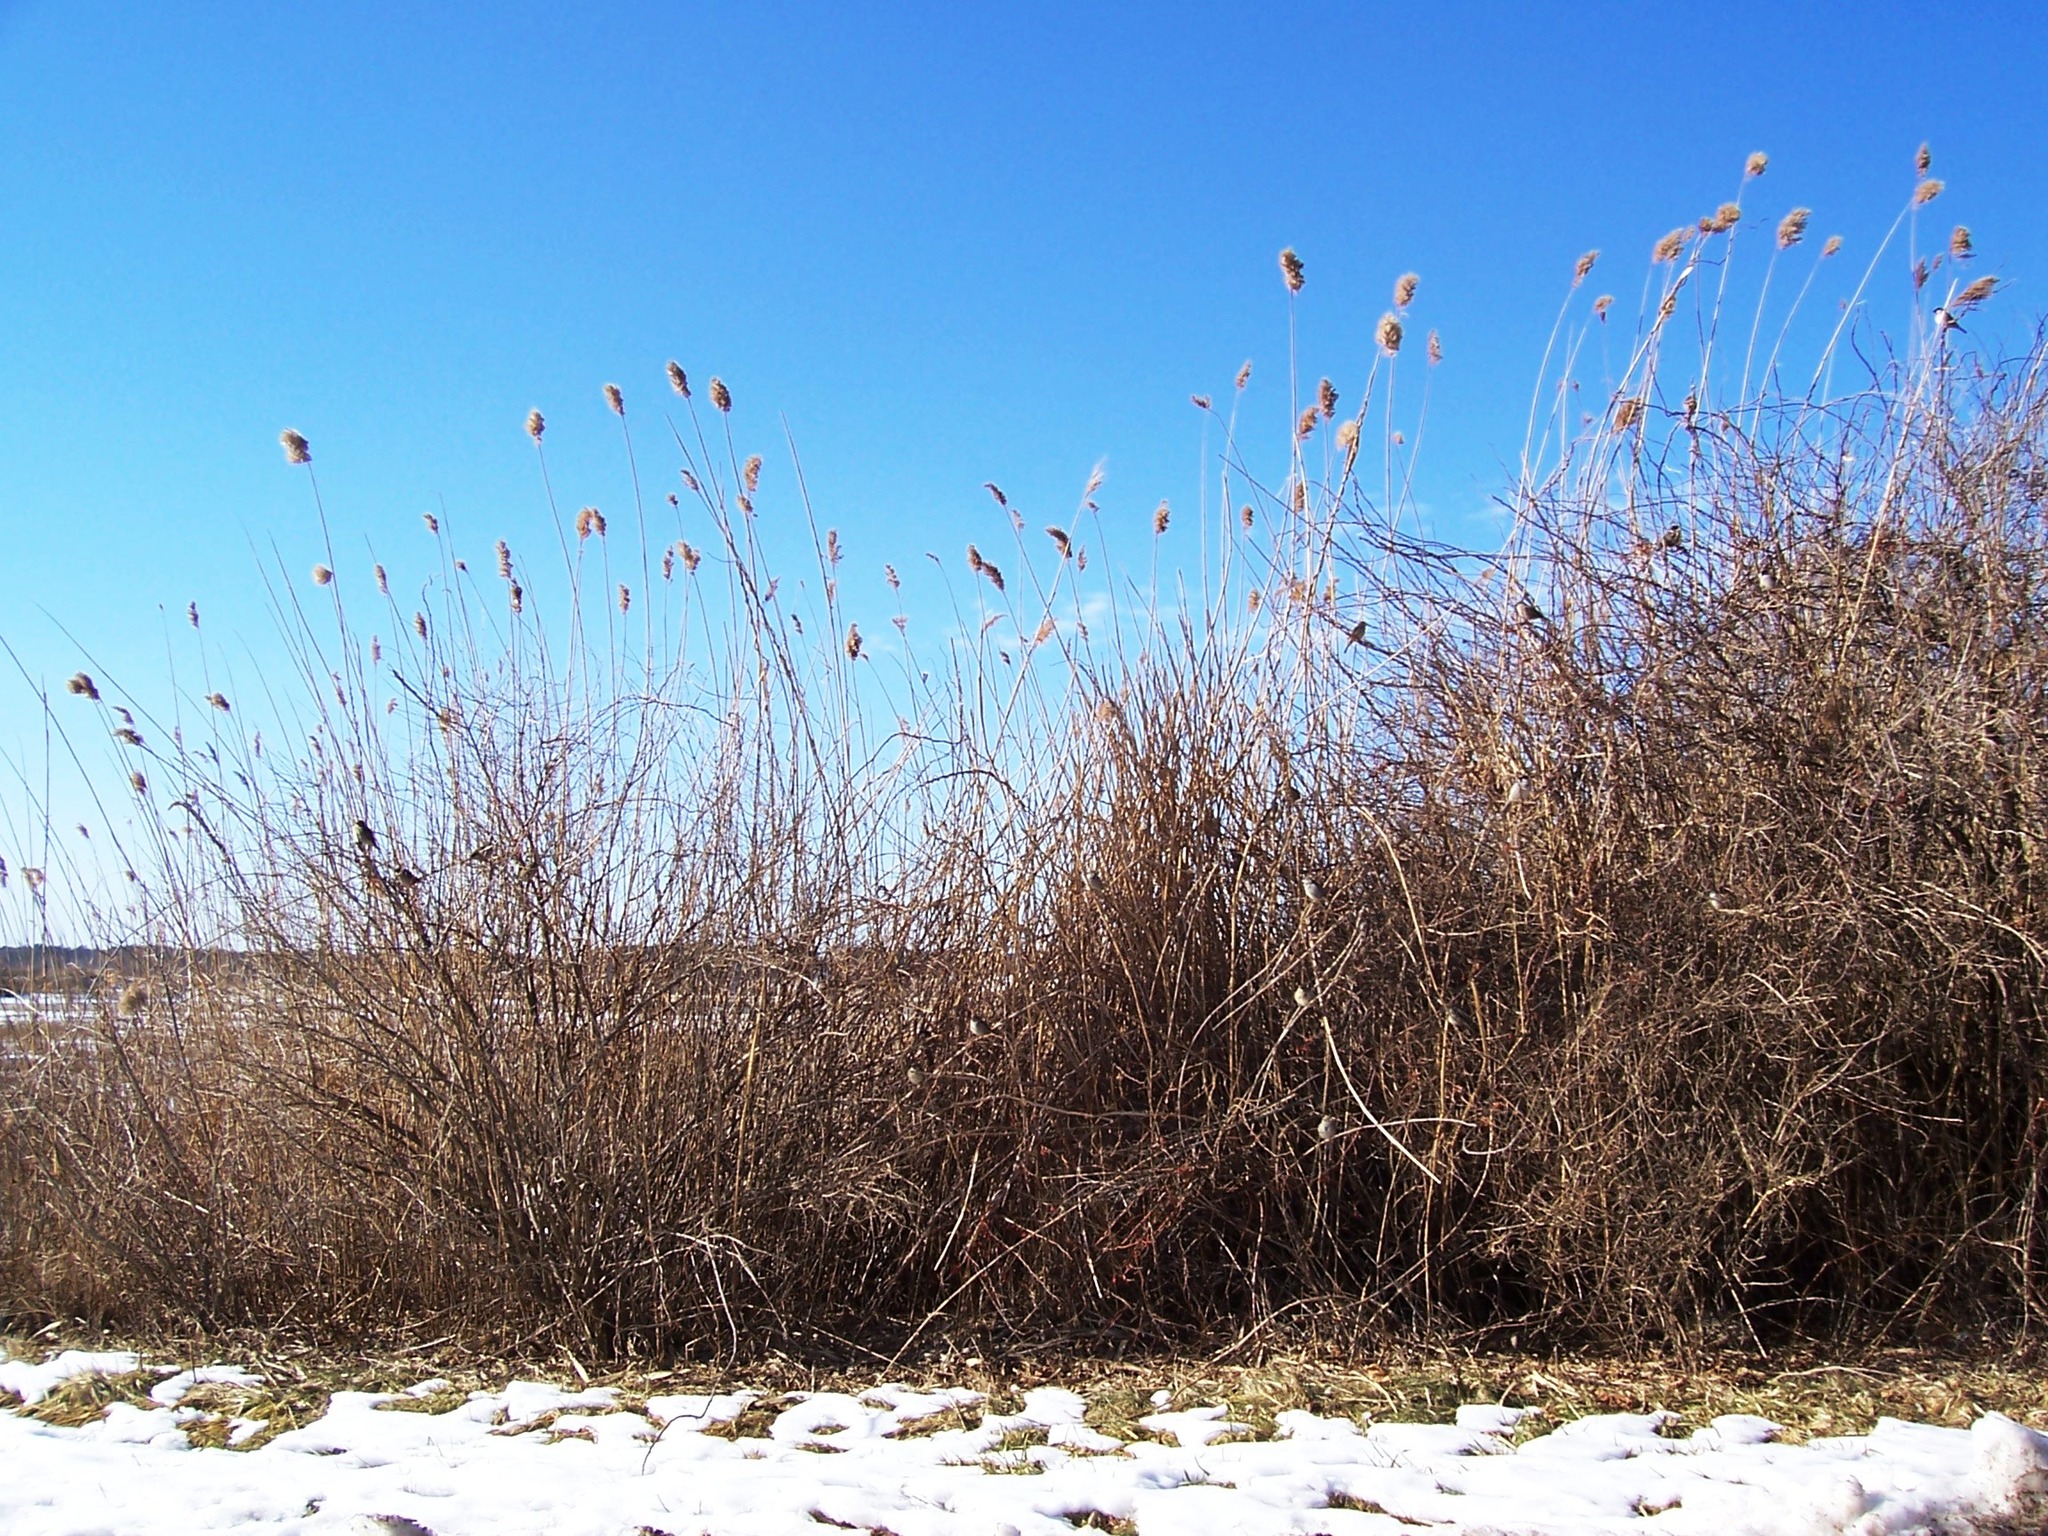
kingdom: Plantae
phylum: Tracheophyta
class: Liliopsida
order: Poales
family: Poaceae
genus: Phragmites
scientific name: Phragmites australis
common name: Common reed
